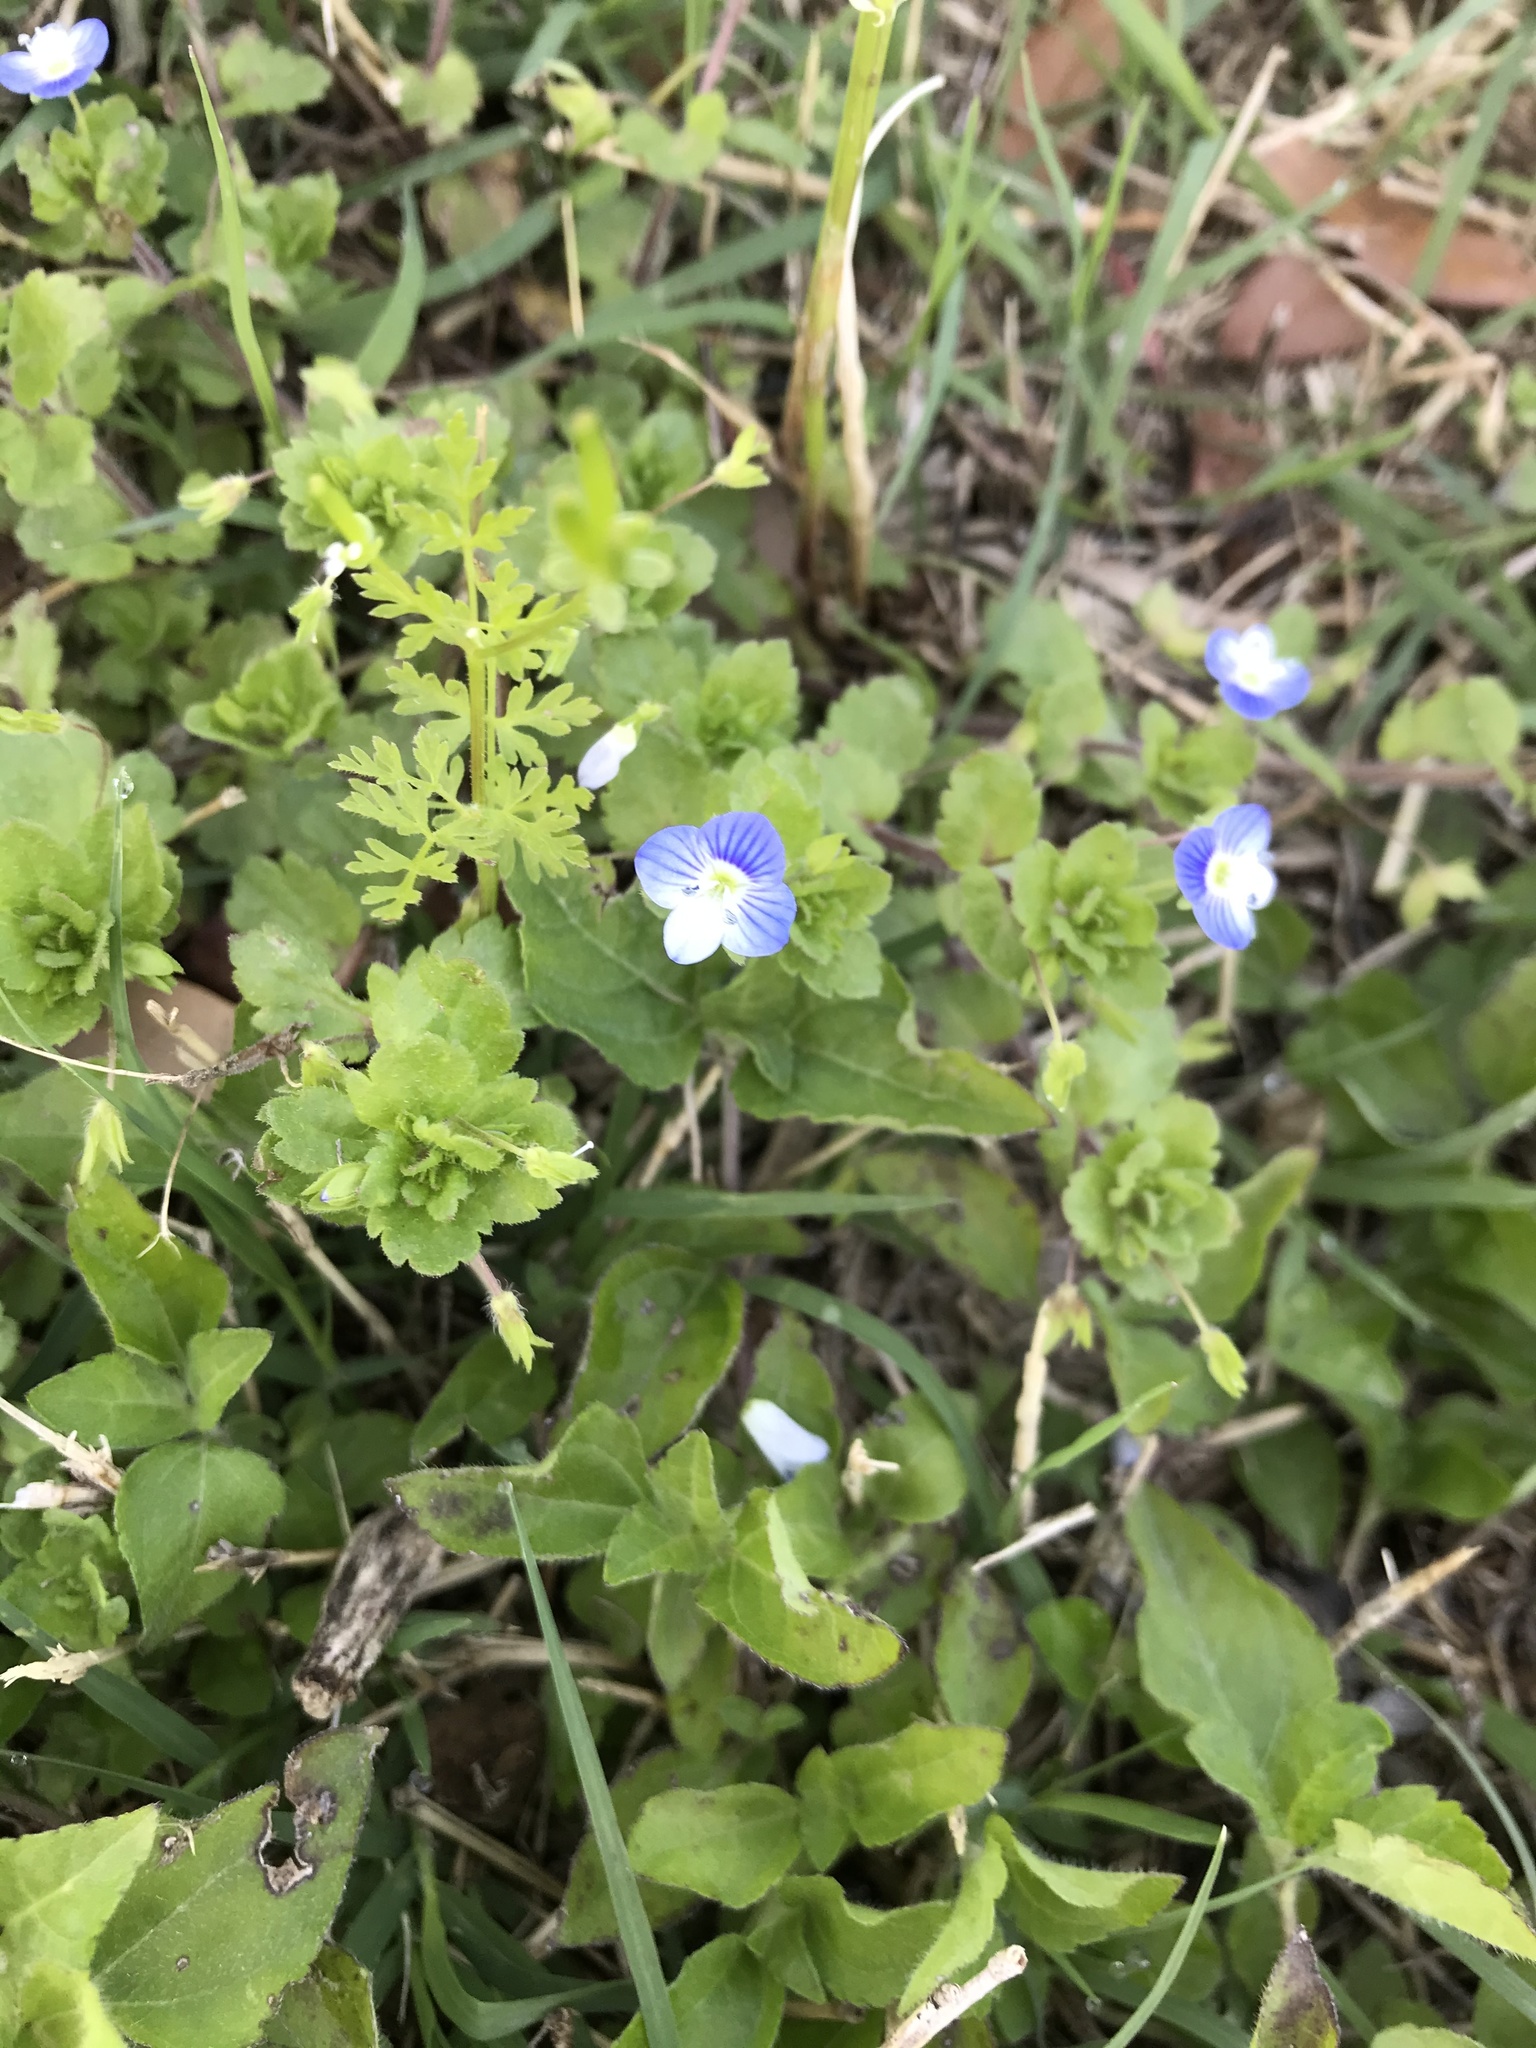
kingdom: Plantae
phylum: Tracheophyta
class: Magnoliopsida
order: Lamiales
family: Plantaginaceae
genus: Veronica
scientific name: Veronica persica
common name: Common field-speedwell
